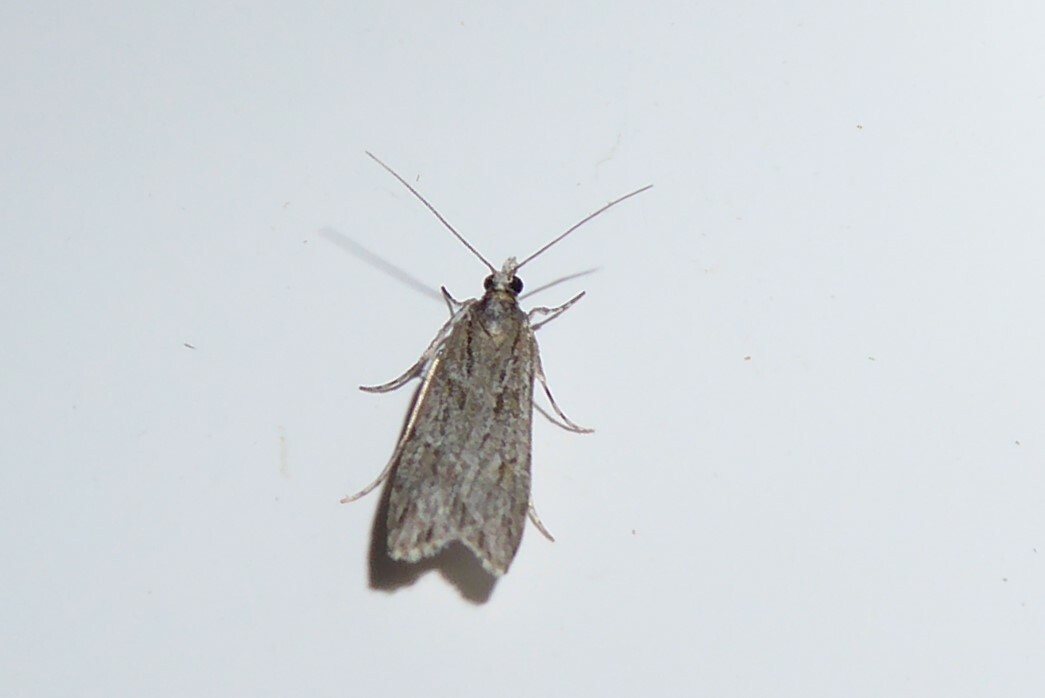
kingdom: Animalia
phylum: Arthropoda
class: Insecta
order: Lepidoptera
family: Crambidae
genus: Scoparia
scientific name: Scoparia chalicodes
